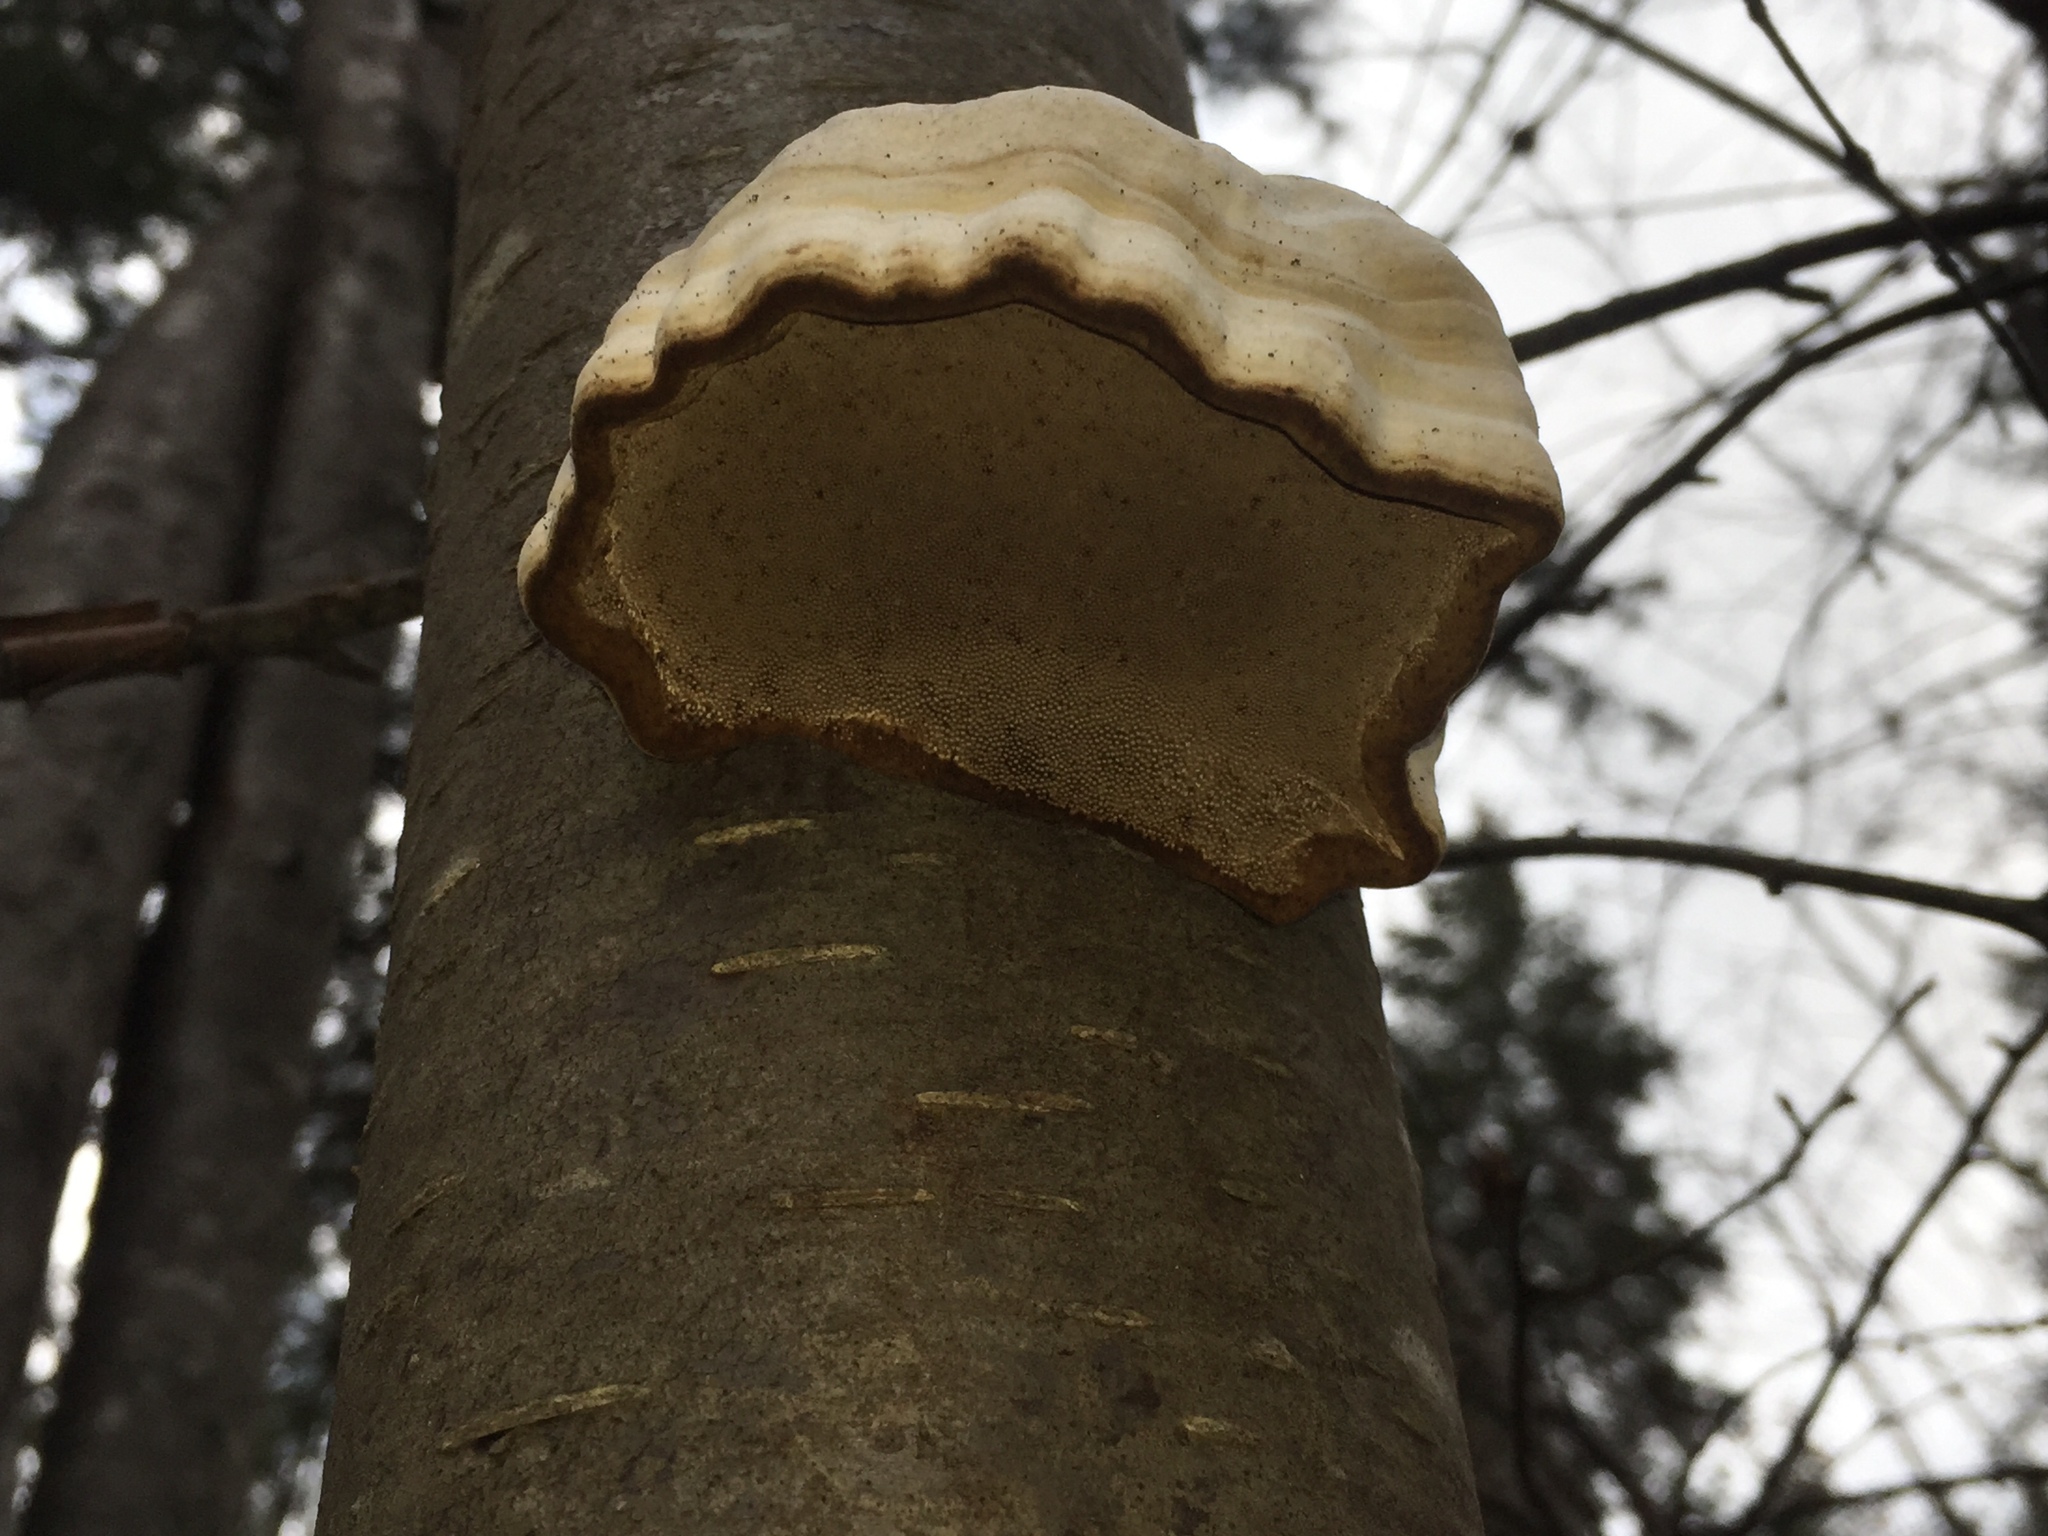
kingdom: Fungi
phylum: Basidiomycota
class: Agaricomycetes
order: Polyporales
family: Polyporaceae
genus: Fomes
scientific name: Fomes fomentarius
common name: Hoof fungus
